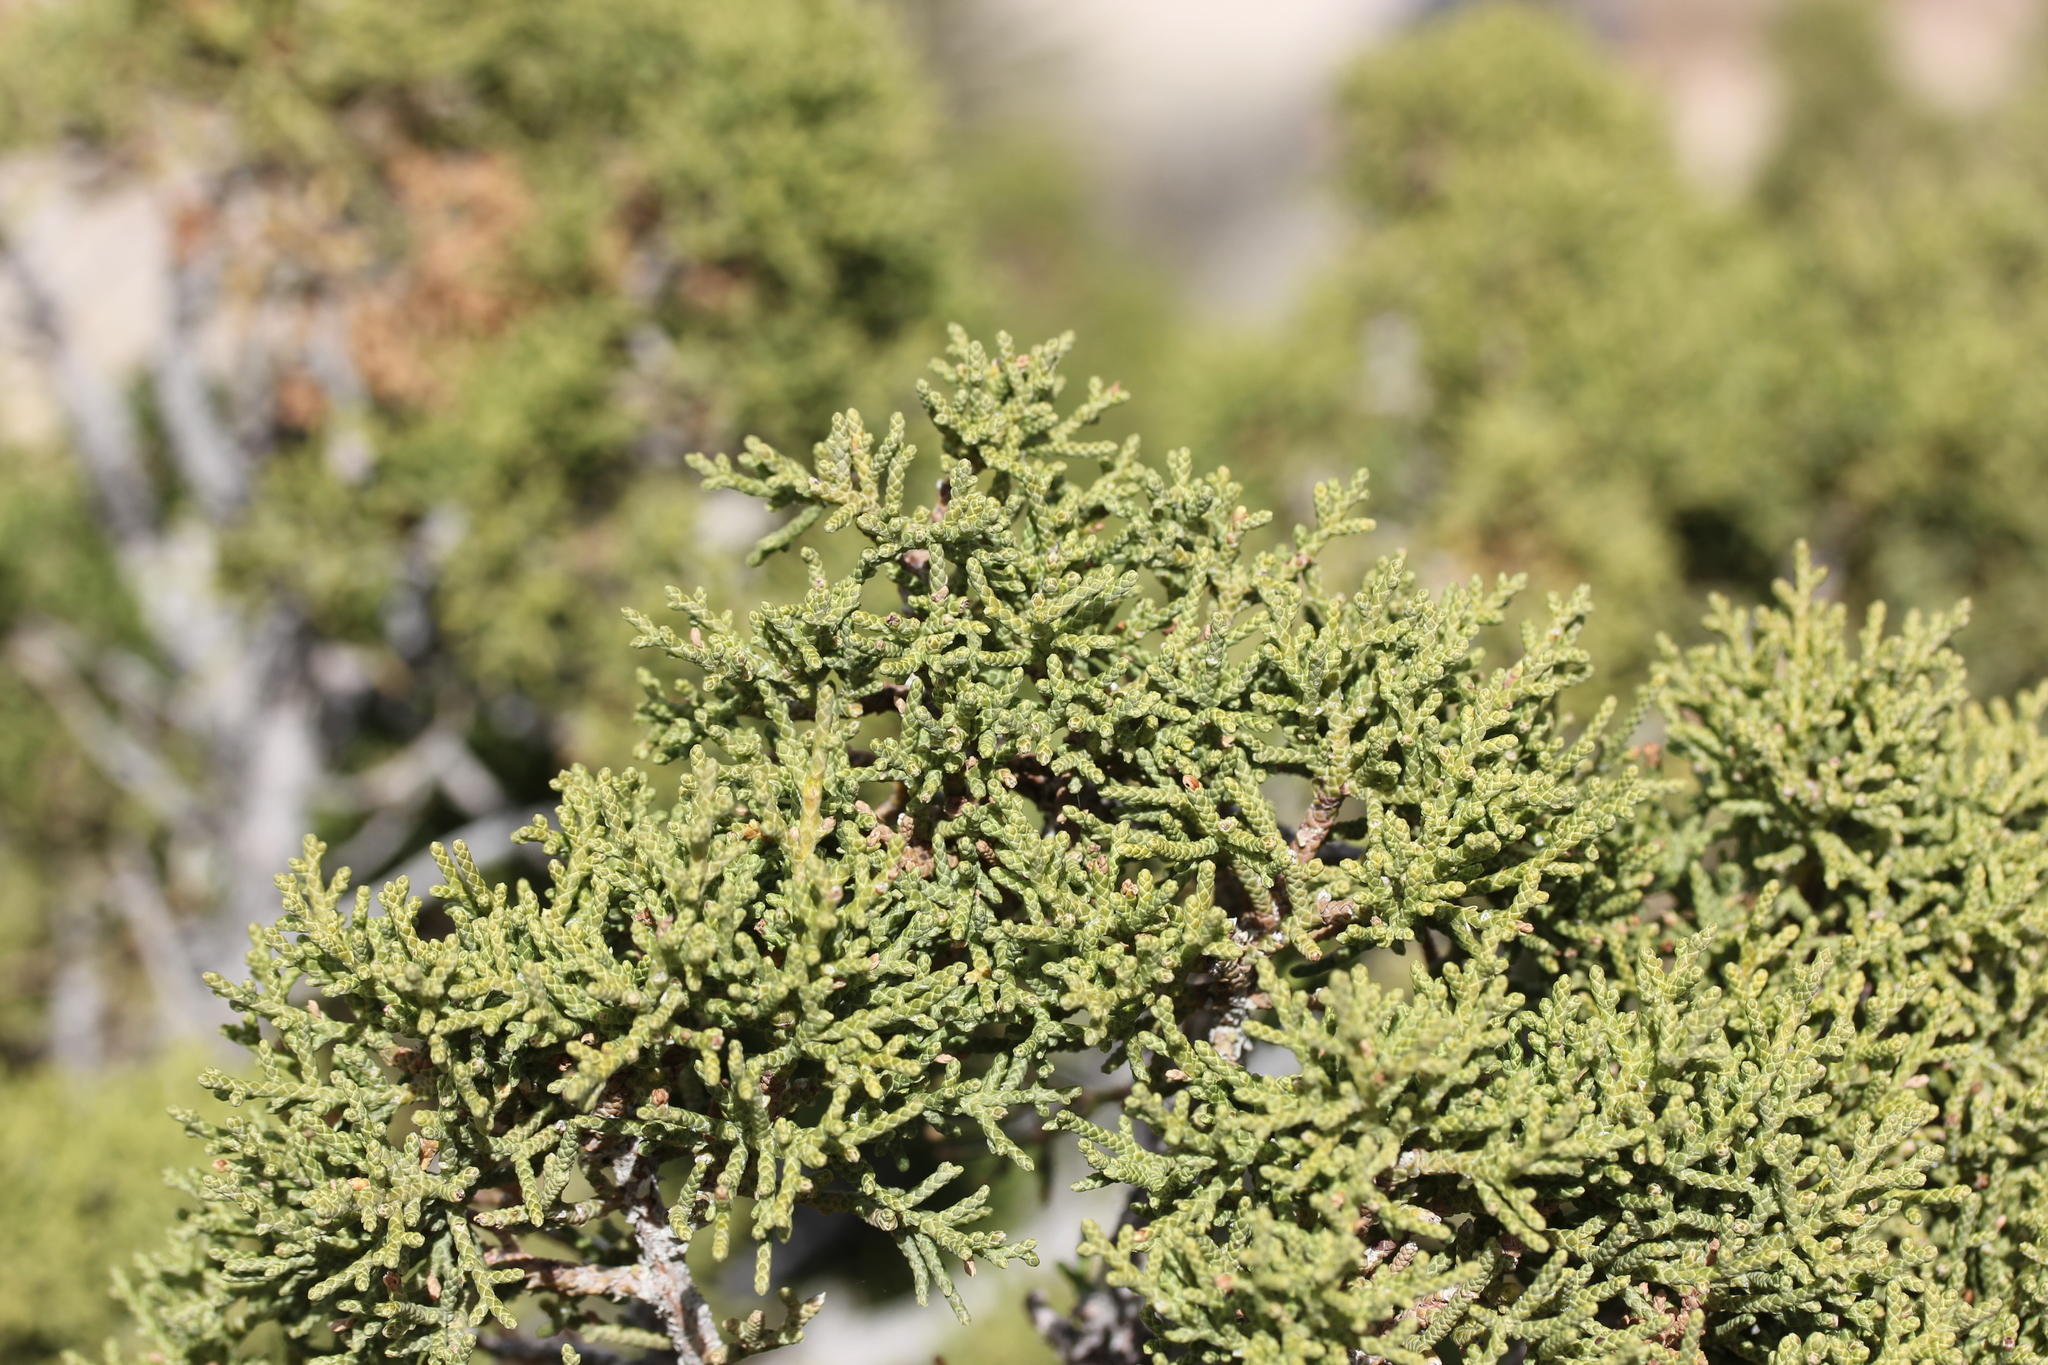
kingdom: Plantae
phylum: Tracheophyta
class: Pinopsida
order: Pinales
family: Cupressaceae
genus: Juniperus
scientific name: Juniperus californica
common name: California juniper
